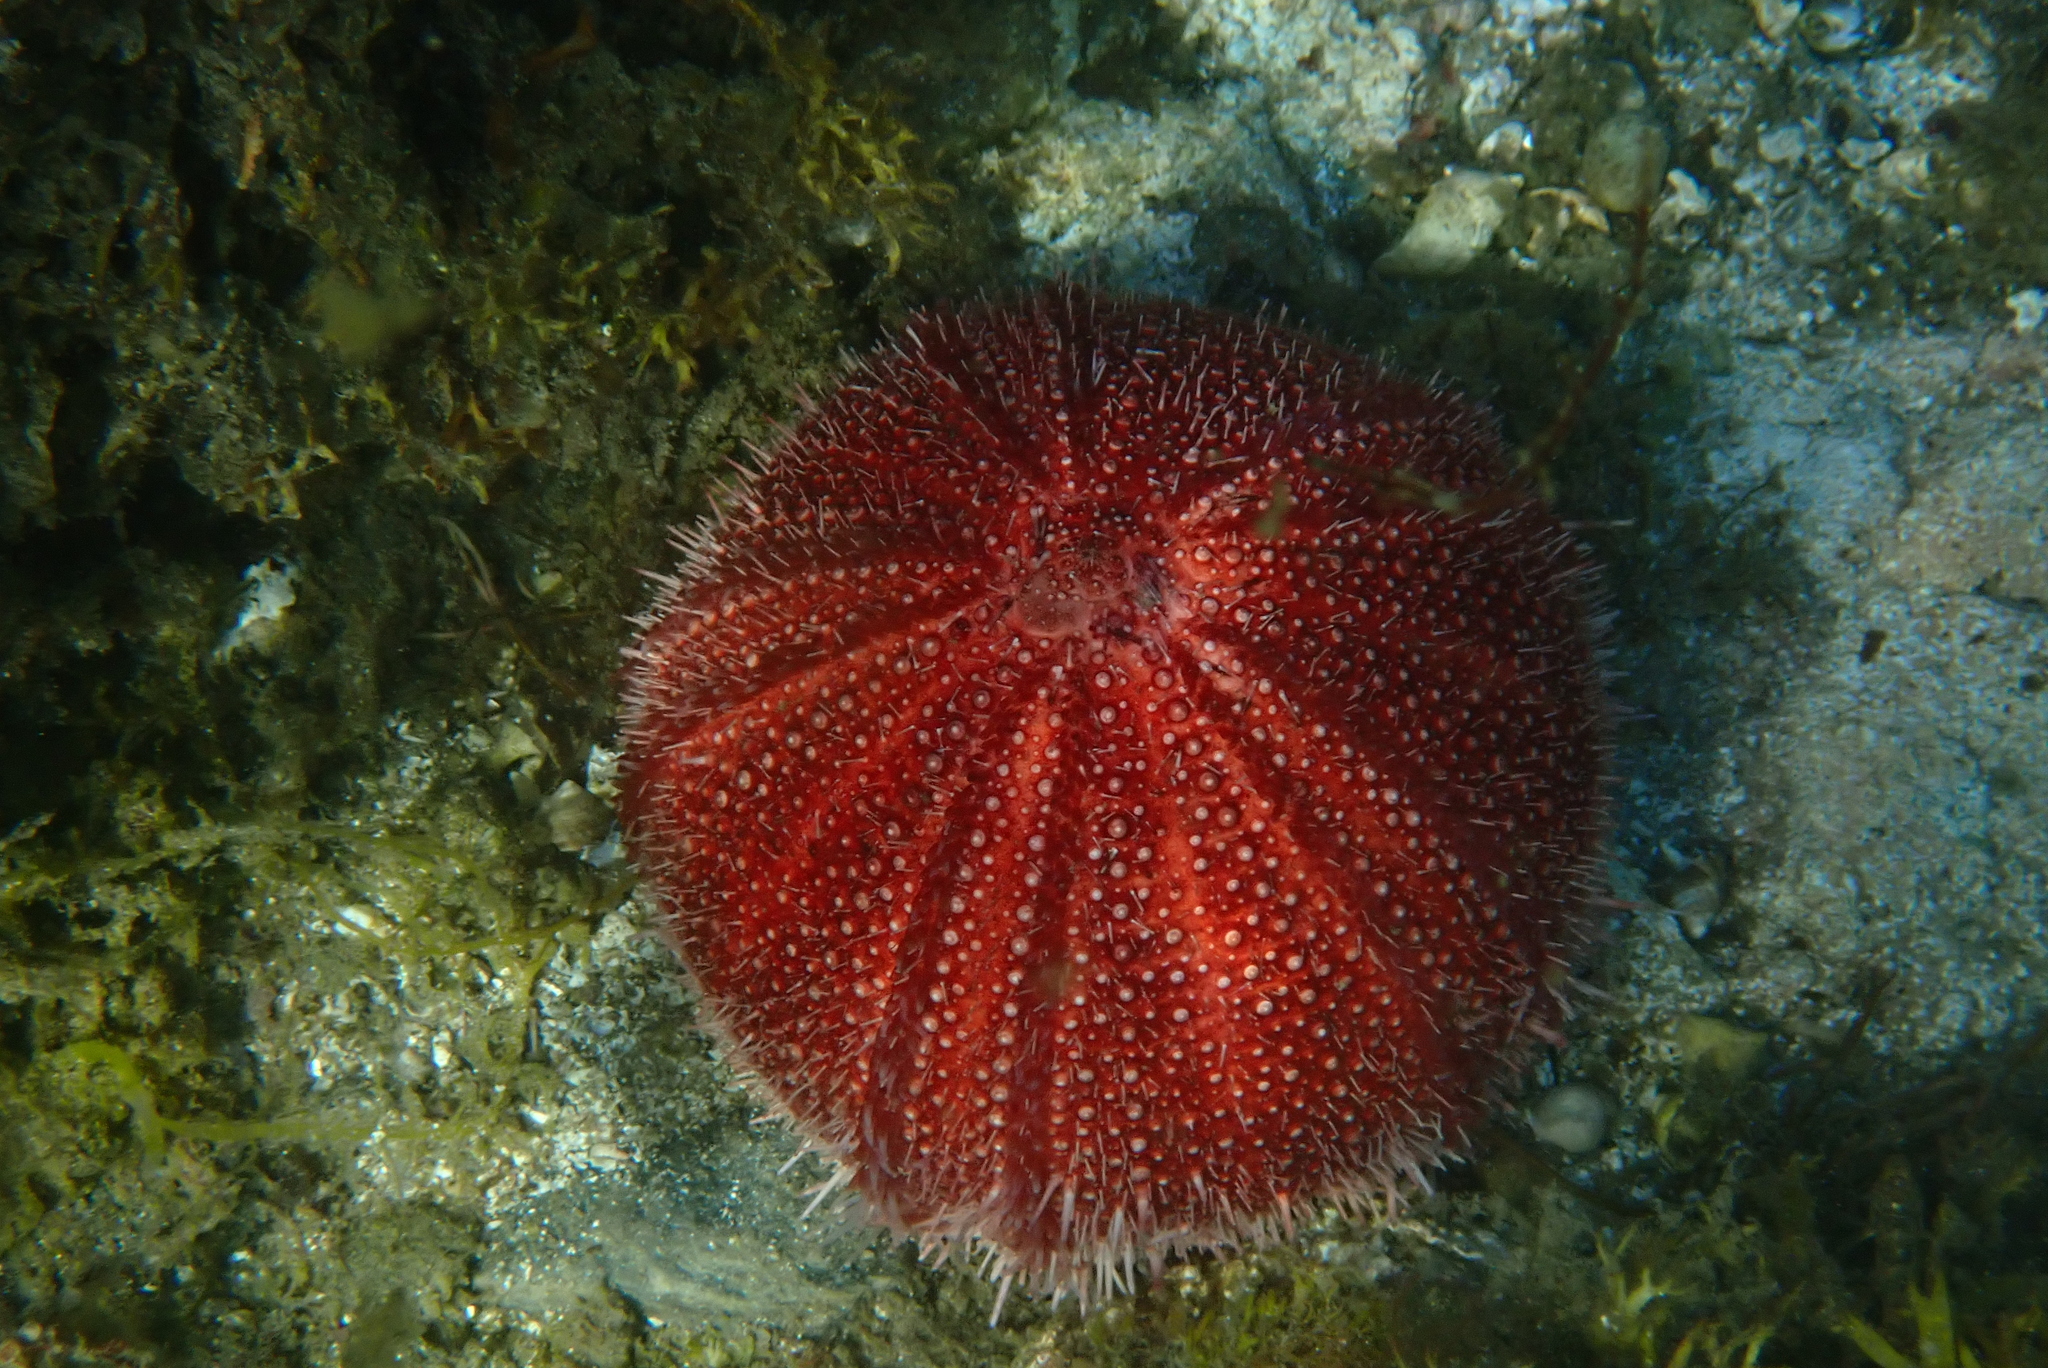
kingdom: Animalia
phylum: Echinodermata
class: Echinoidea
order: Camarodonta
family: Echinidae
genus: Echinus
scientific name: Echinus esculentus
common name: Edible sea urchin
